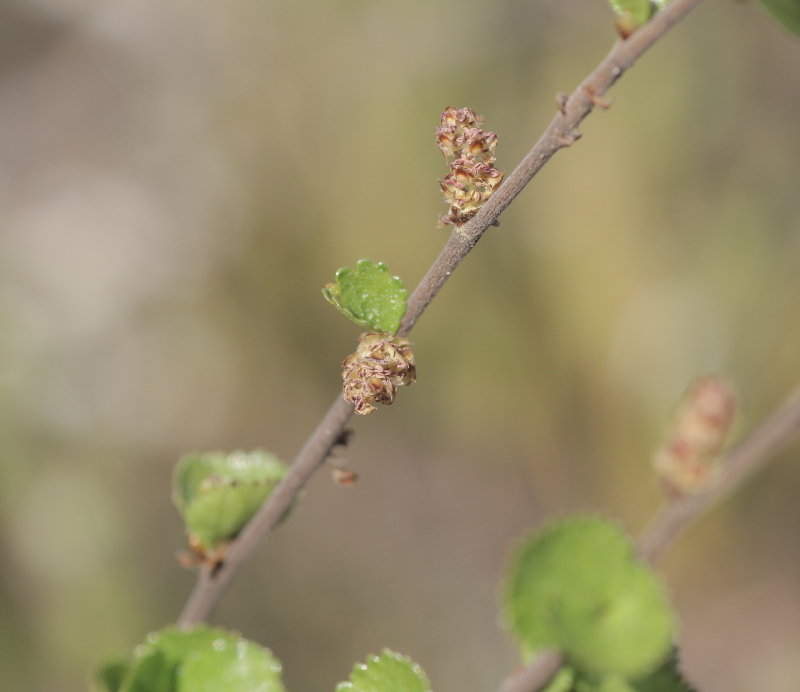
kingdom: Plantae
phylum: Tracheophyta
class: Magnoliopsida
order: Fagales
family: Betulaceae
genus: Betula
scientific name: Betula nana
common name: Arctic dwarf birch
